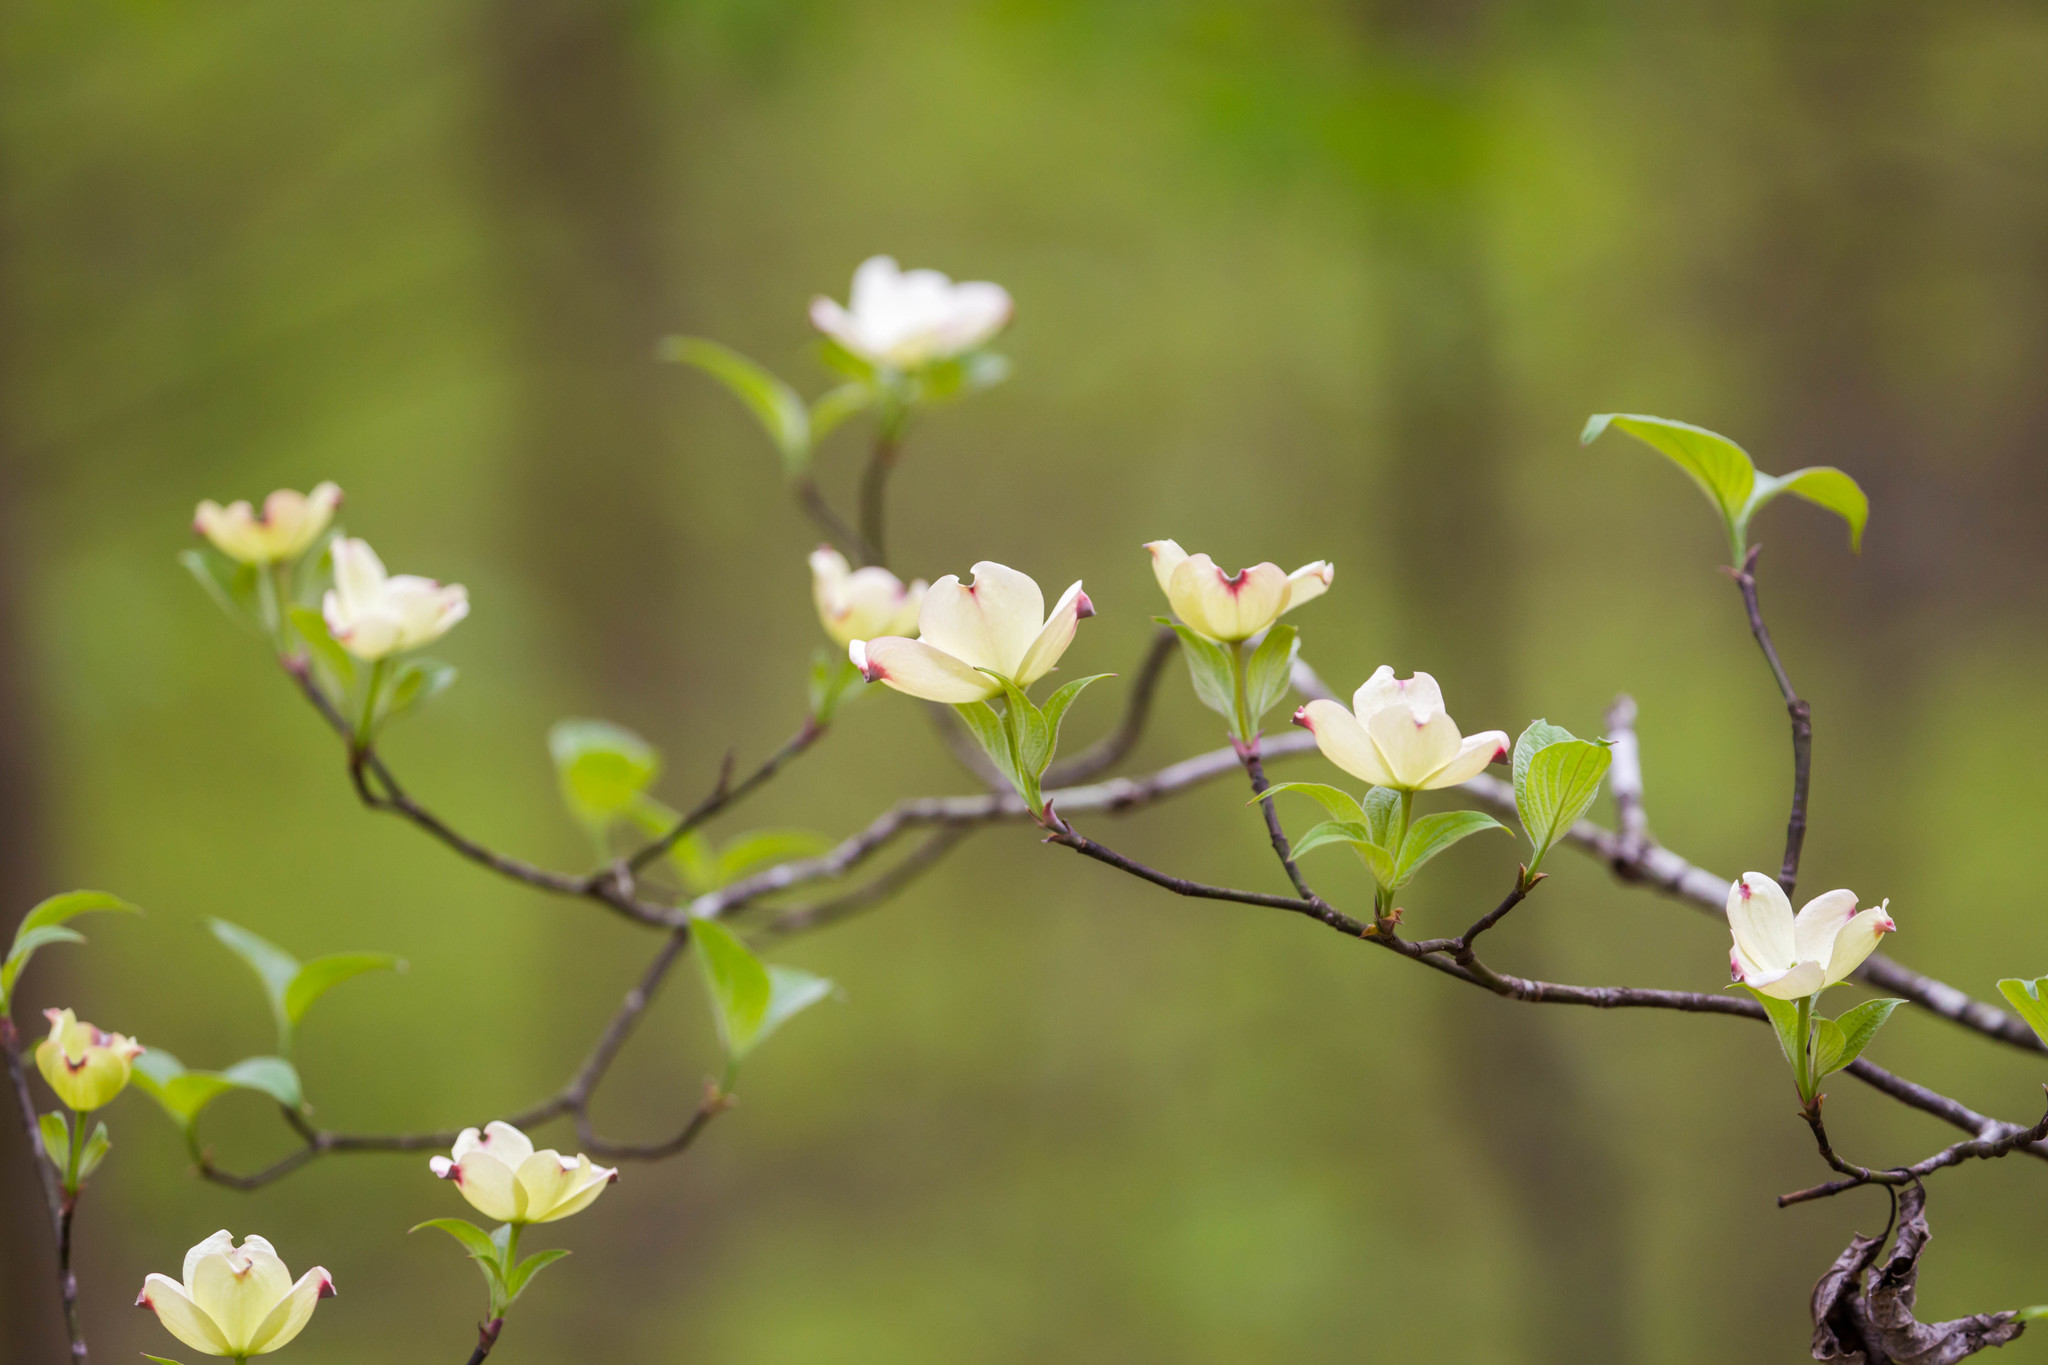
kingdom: Plantae
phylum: Tracheophyta
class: Magnoliopsida
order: Cornales
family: Cornaceae
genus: Cornus
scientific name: Cornus florida
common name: Flowering dogwood
